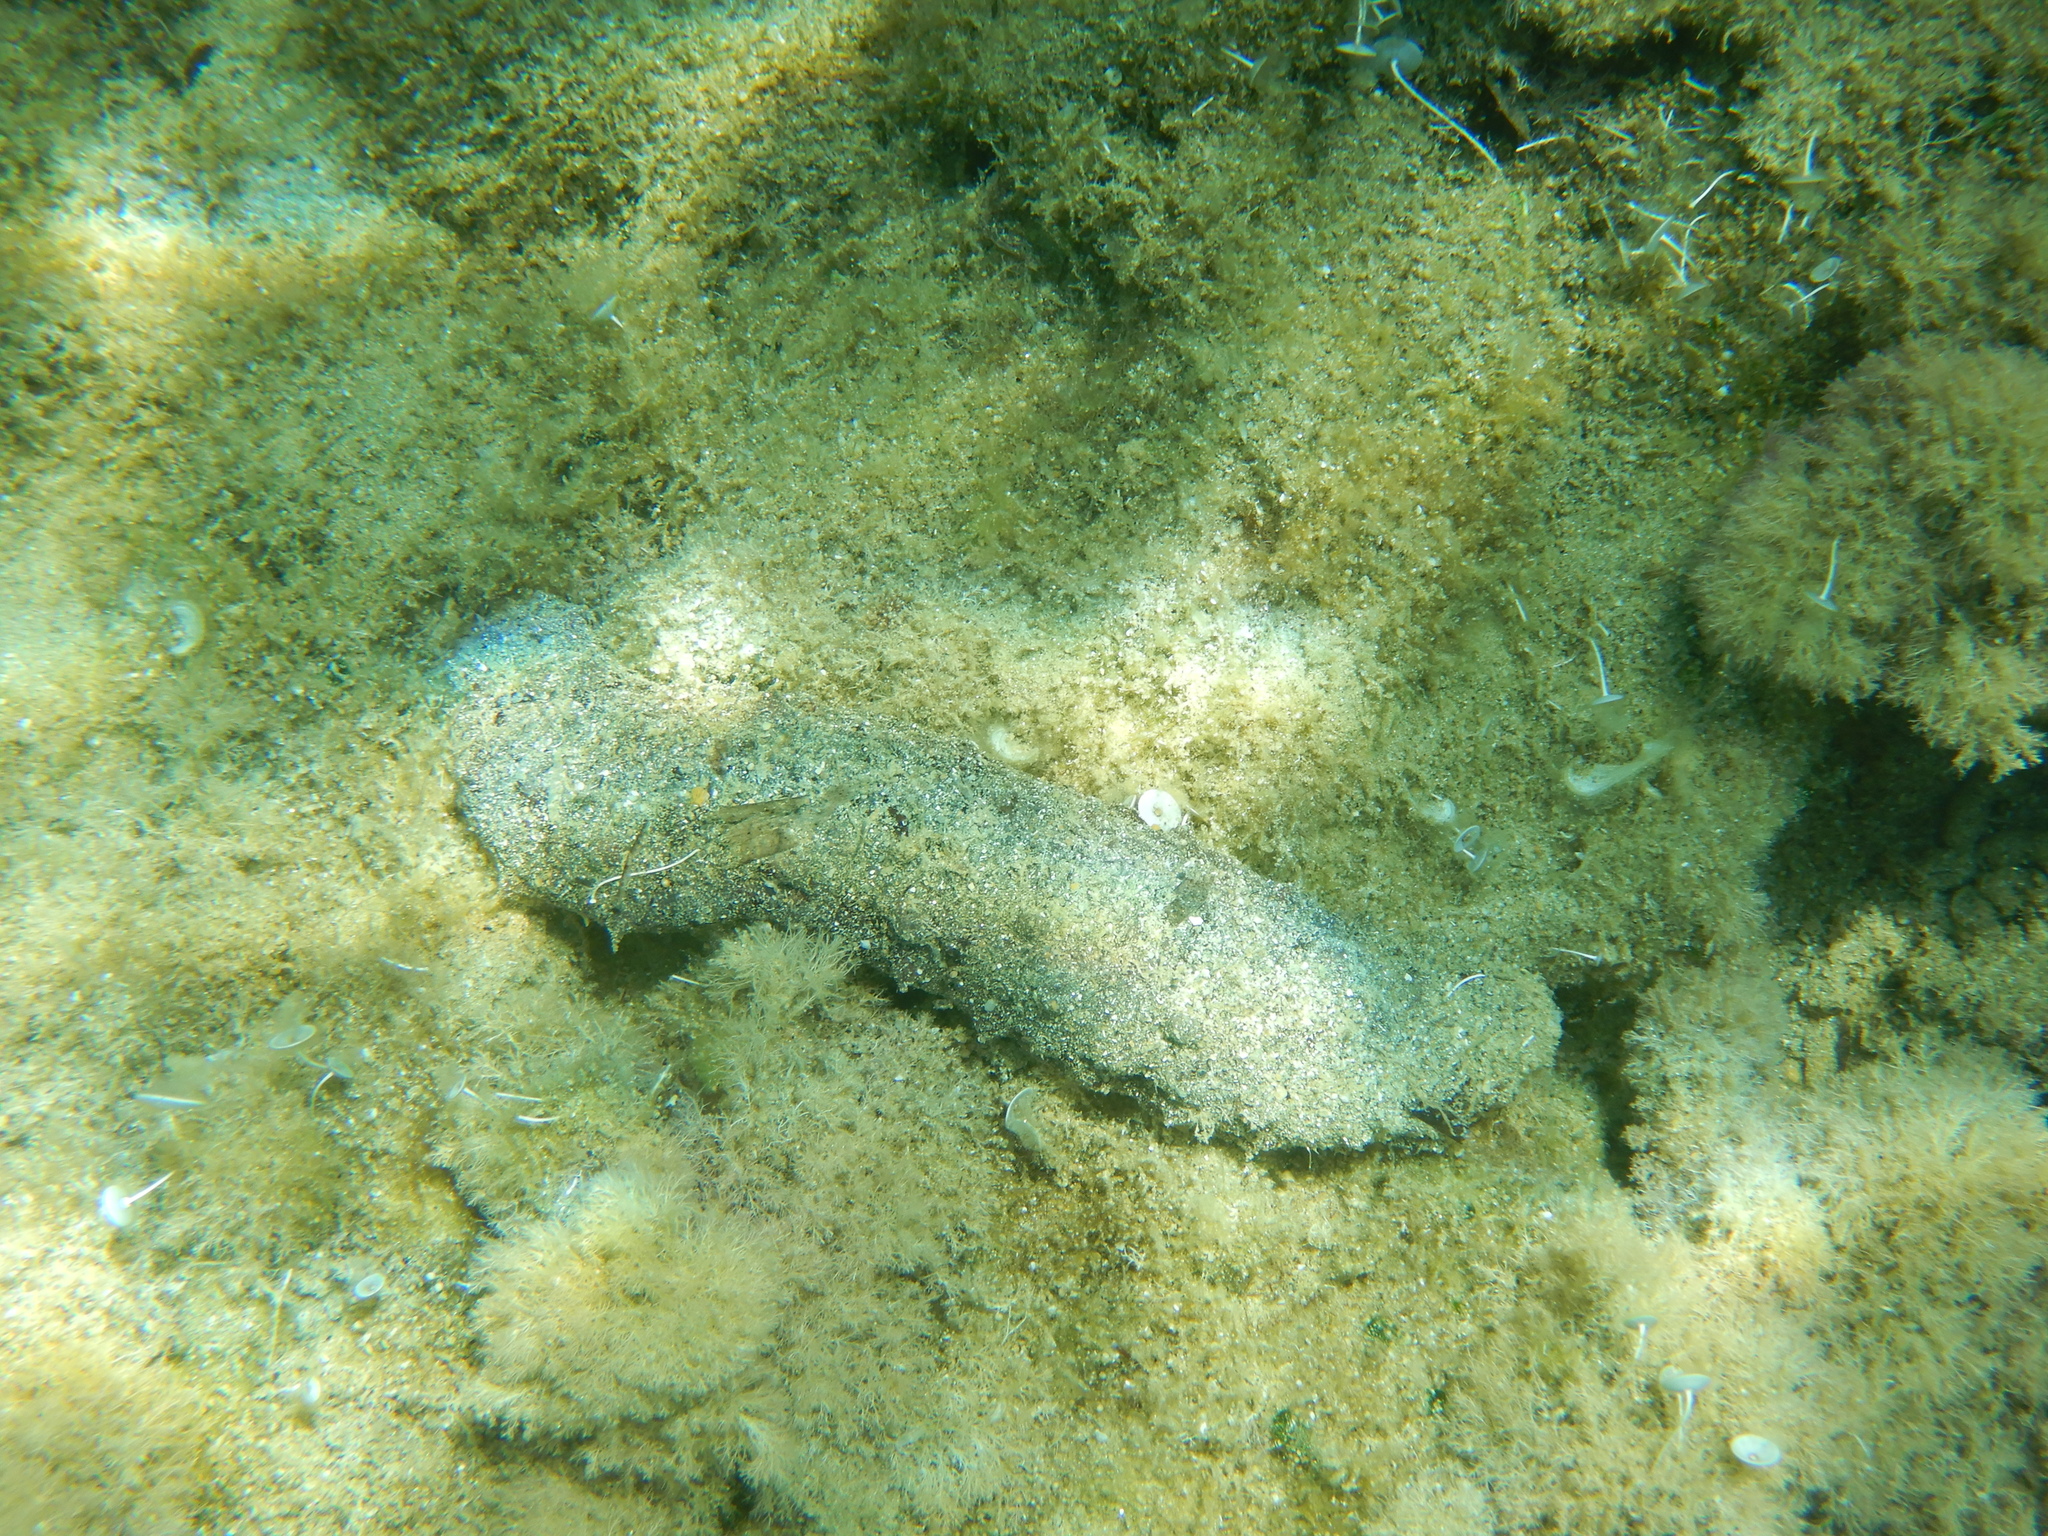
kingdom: Animalia
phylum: Echinodermata
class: Holothuroidea
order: Holothuriida
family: Holothuriidae
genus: Holothuria
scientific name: Holothuria
